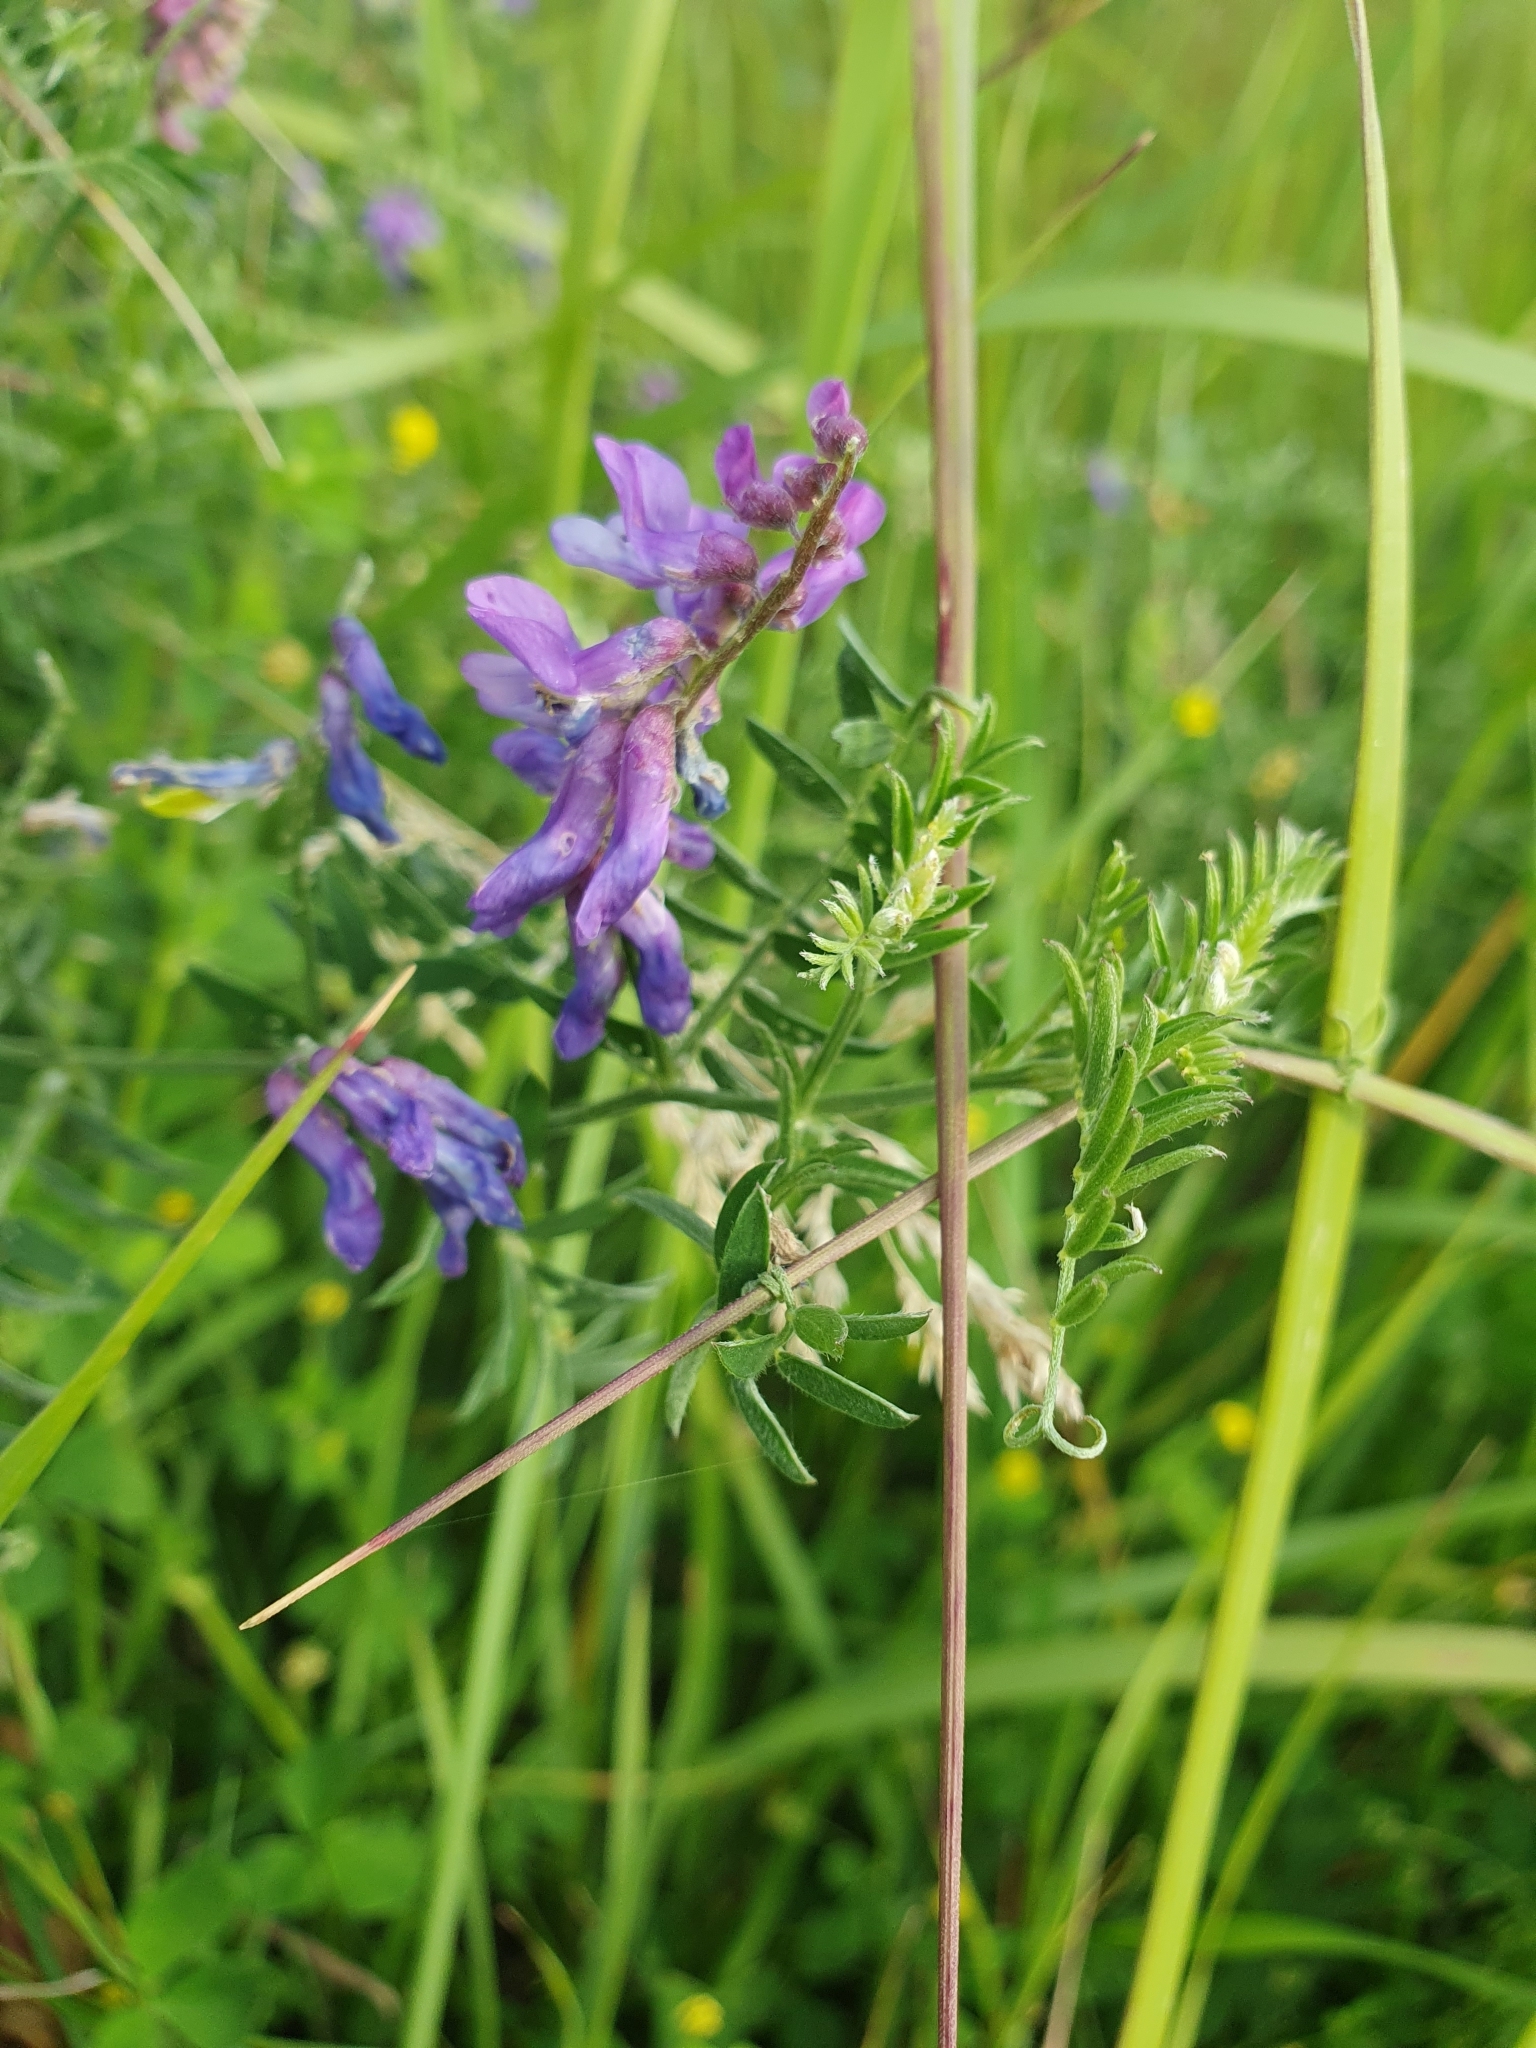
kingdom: Plantae
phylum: Tracheophyta
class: Magnoliopsida
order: Fabales
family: Fabaceae
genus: Vicia
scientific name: Vicia cracca
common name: Bird vetch
